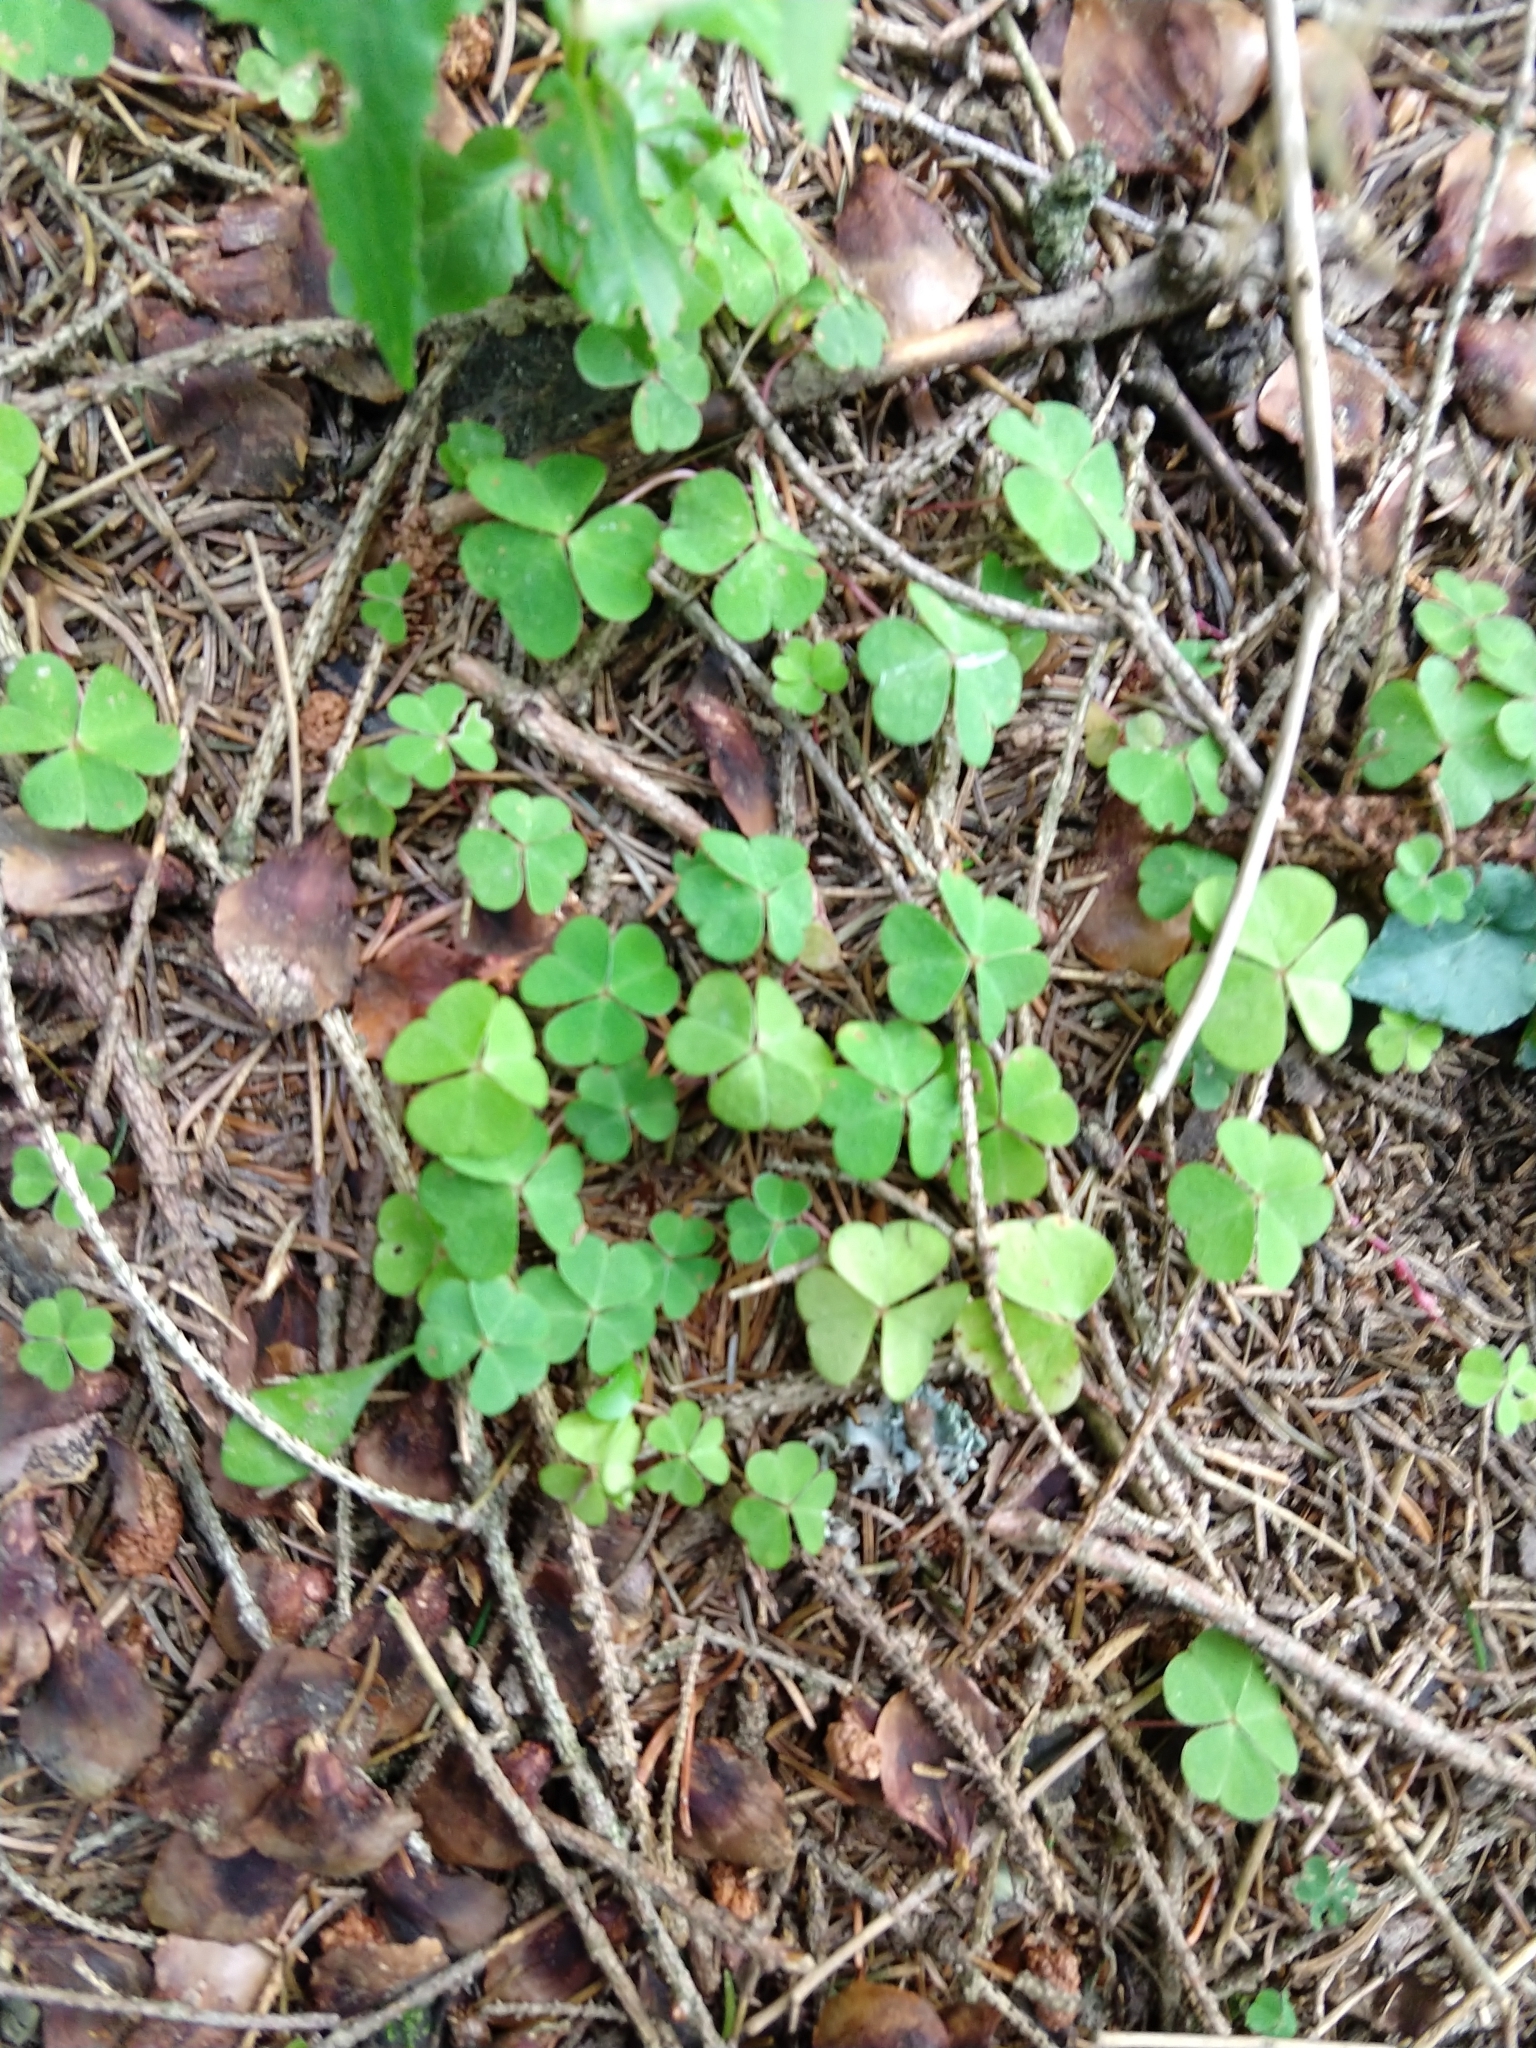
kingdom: Plantae
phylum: Tracheophyta
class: Magnoliopsida
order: Oxalidales
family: Oxalidaceae
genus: Oxalis
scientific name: Oxalis acetosella
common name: Wood-sorrel
